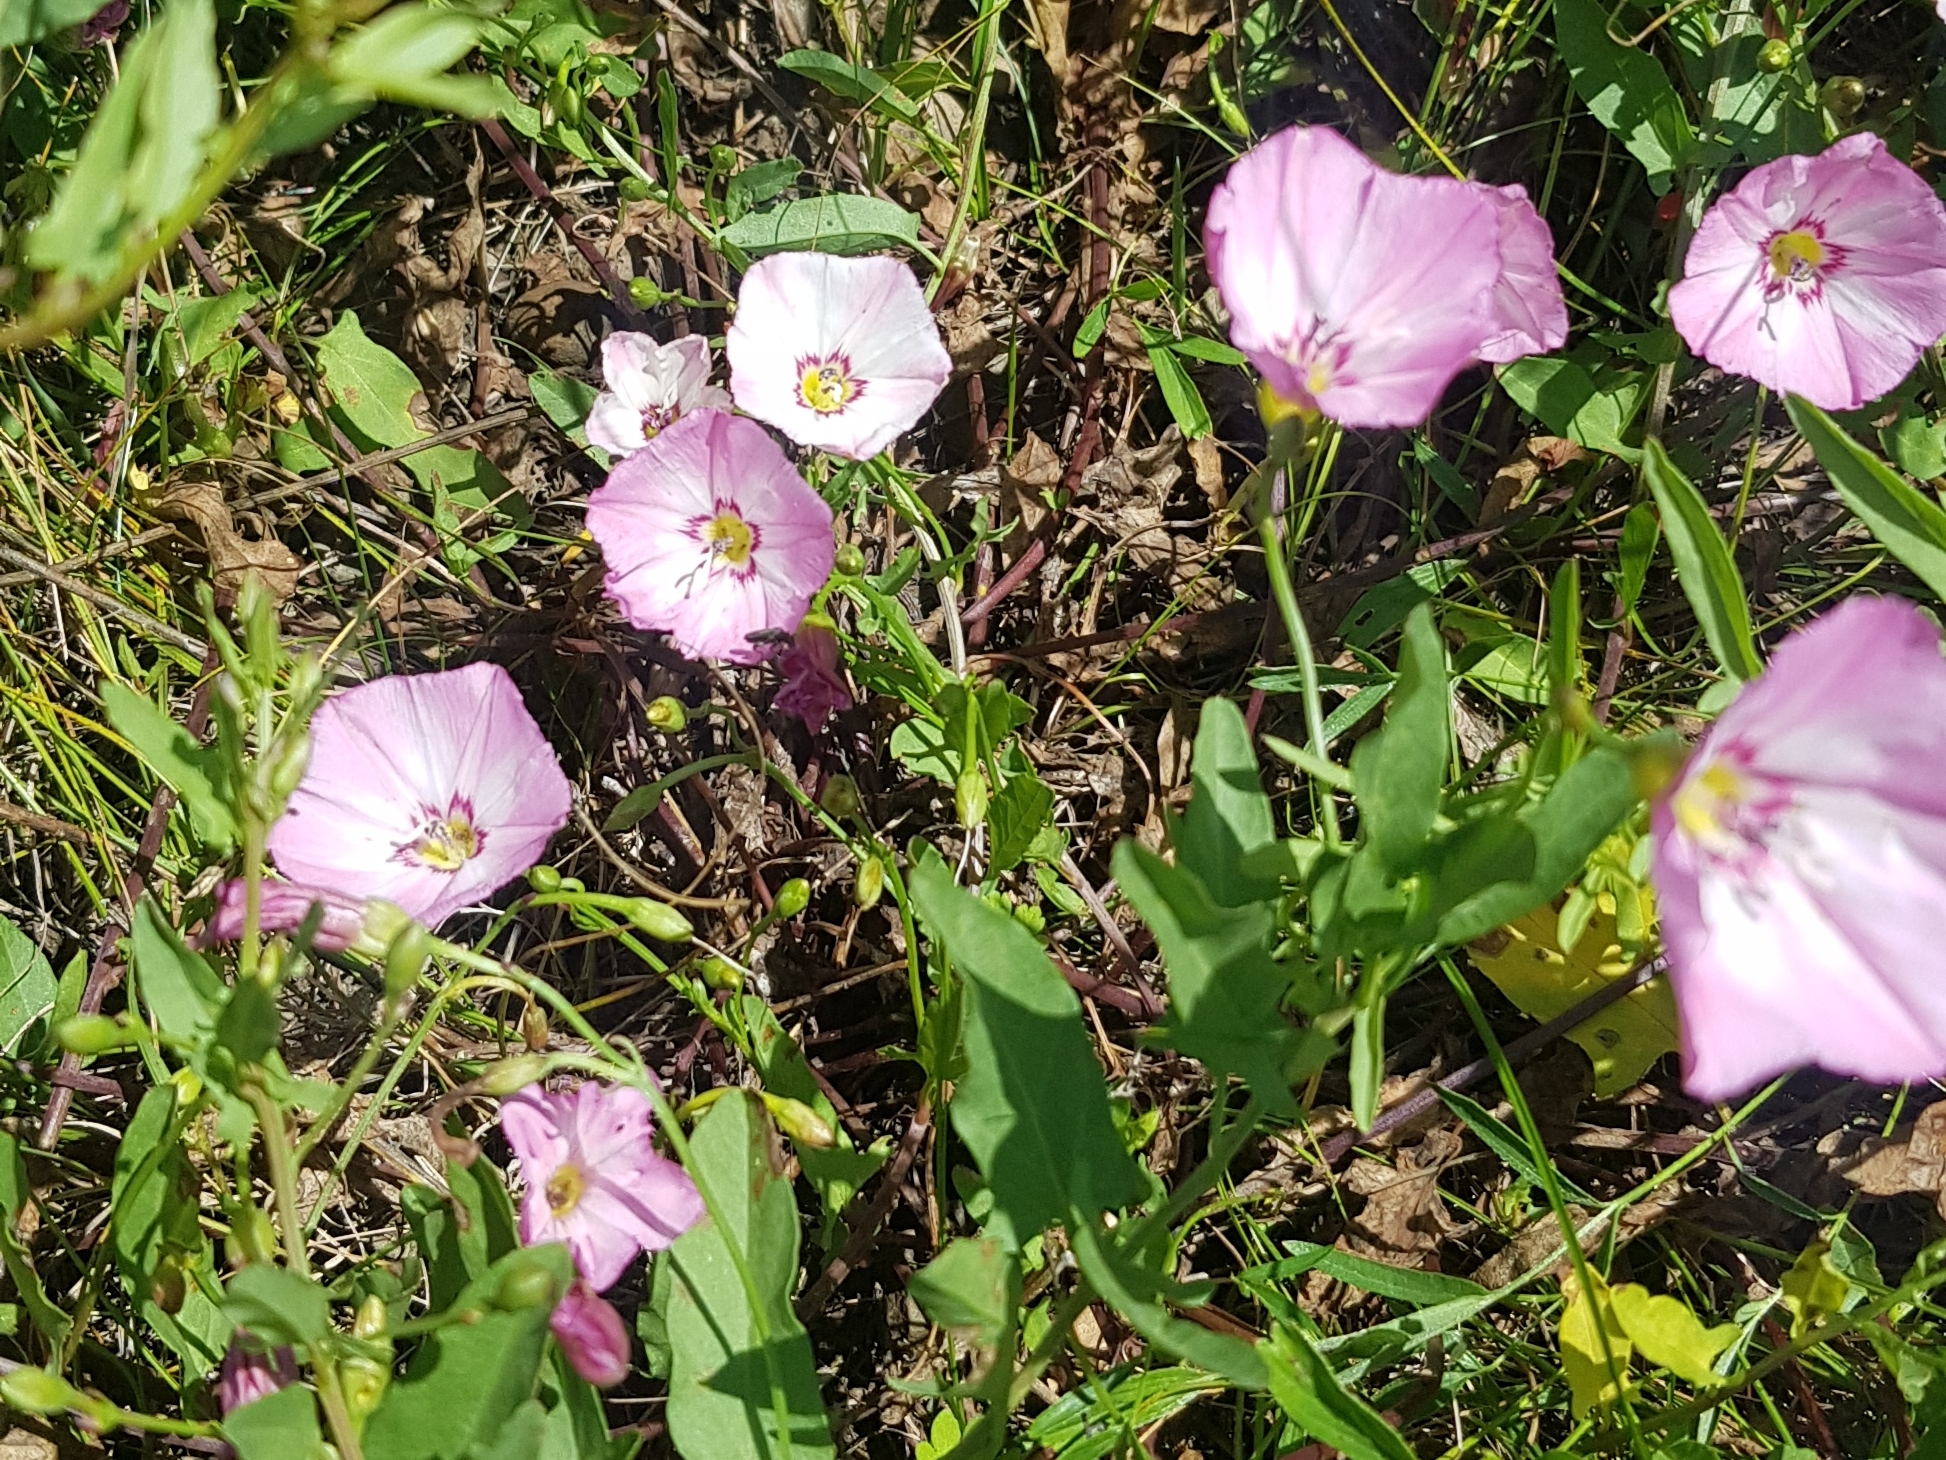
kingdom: Plantae
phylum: Tracheophyta
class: Magnoliopsida
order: Solanales
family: Convolvulaceae
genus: Convolvulus
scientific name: Convolvulus arvensis
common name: Field bindweed
